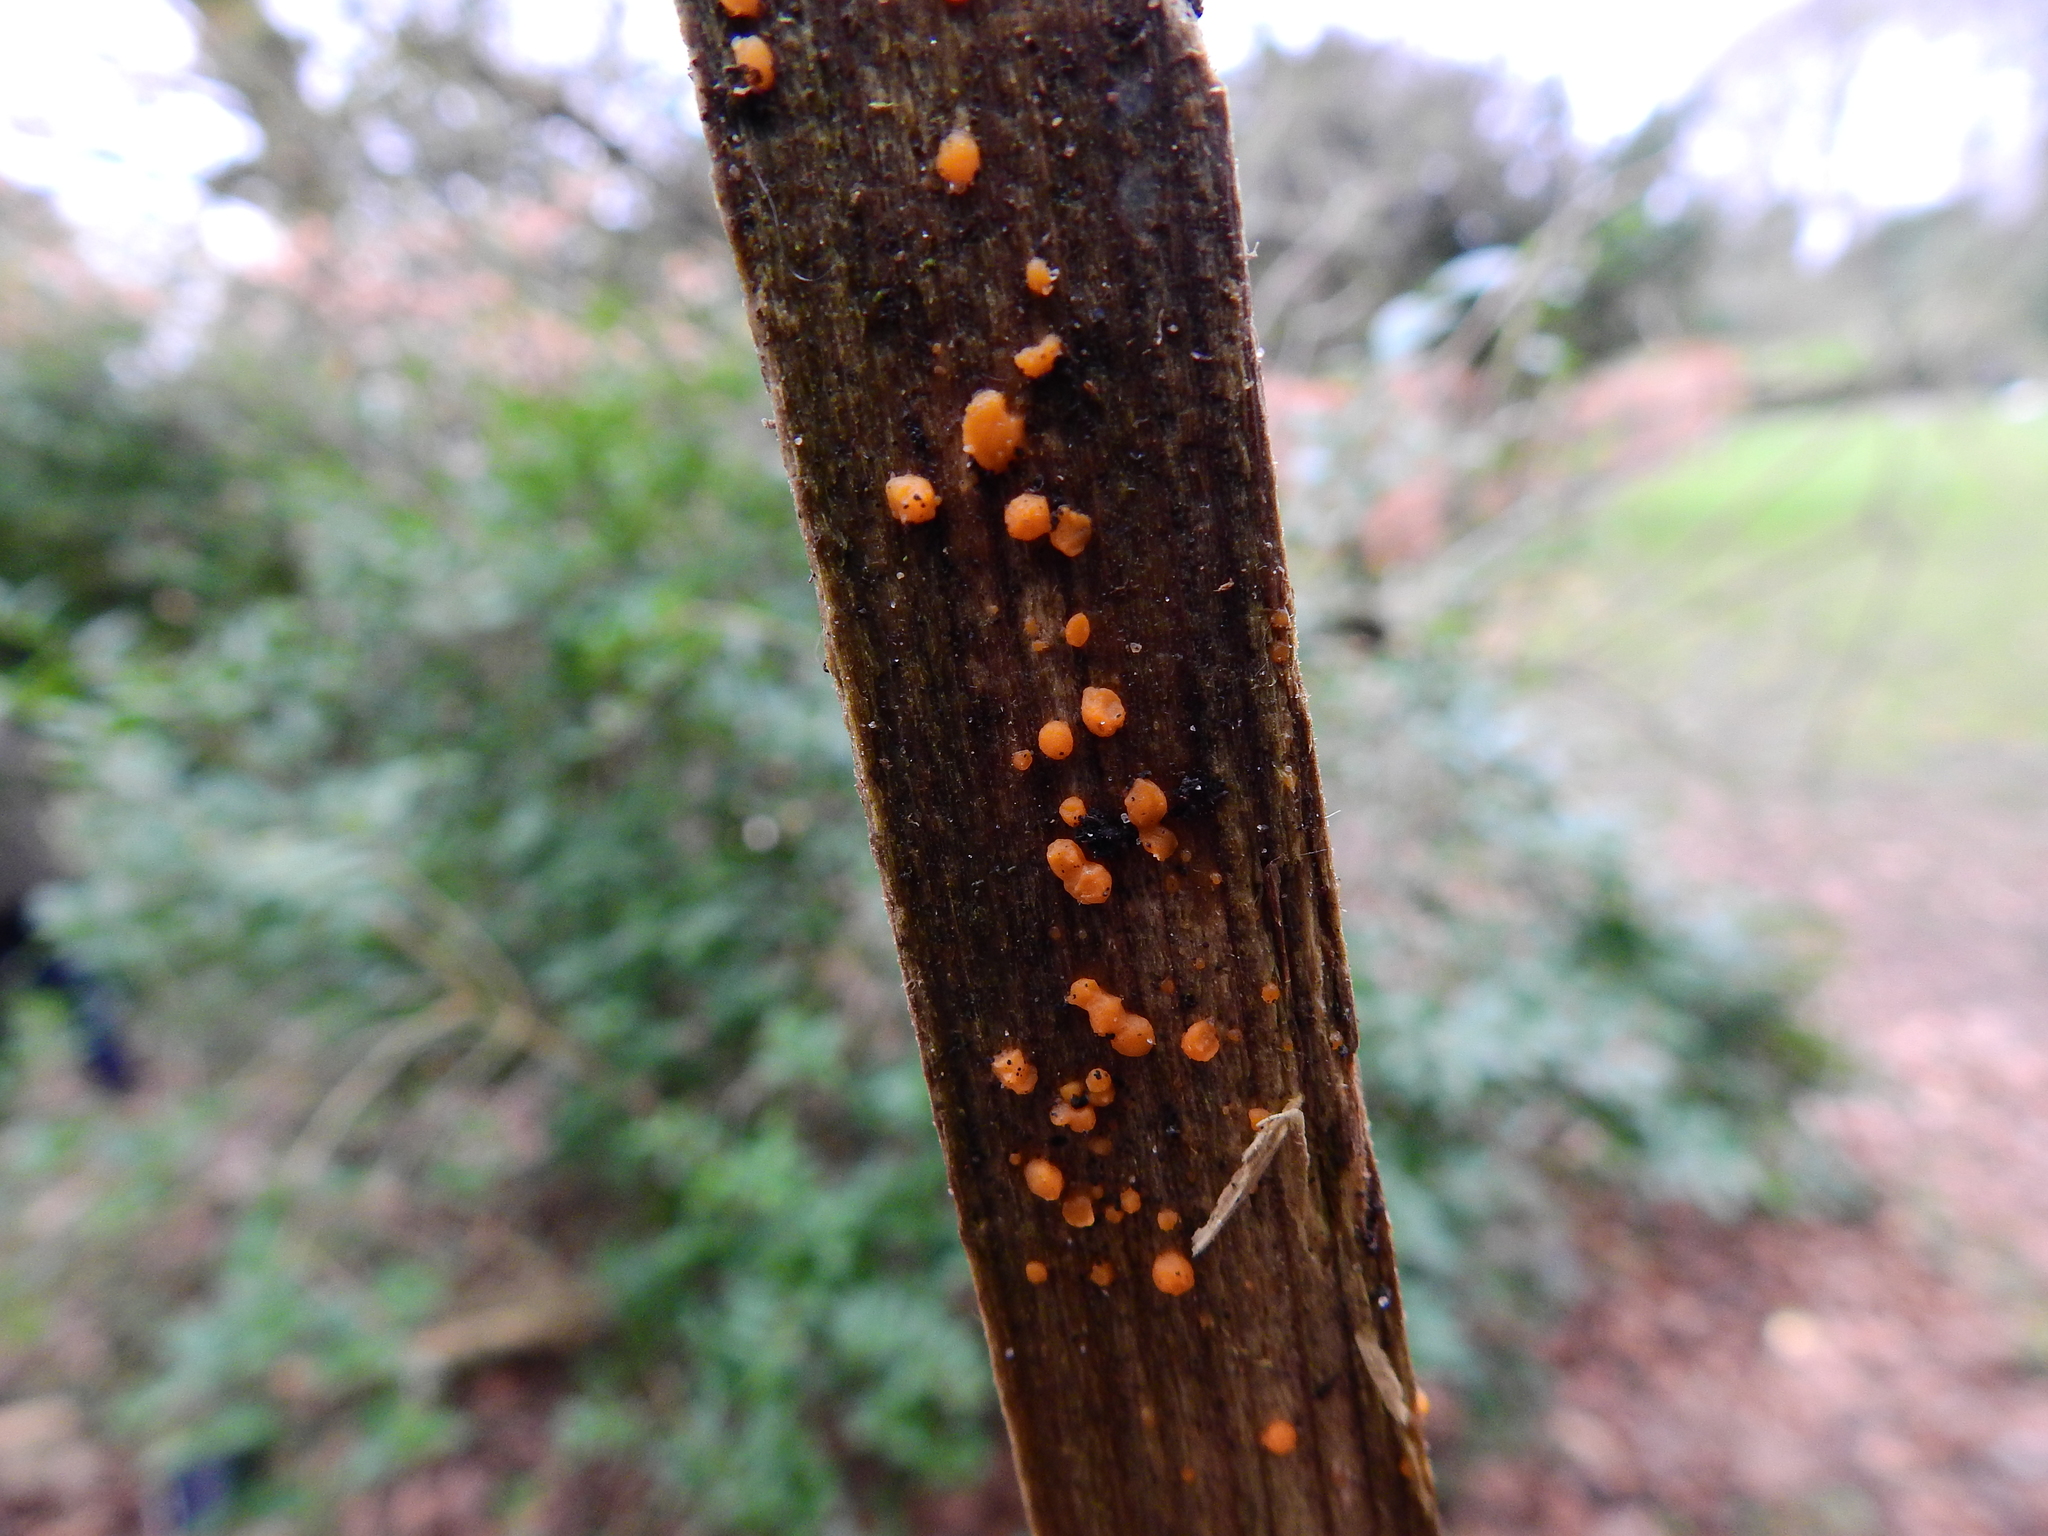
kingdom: Fungi
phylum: Basidiomycota
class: Dacrymycetes
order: Dacrymycetales
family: Dacrymycetaceae
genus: Dacrymyces
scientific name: Dacrymyces stillatus
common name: Common jelly spot
